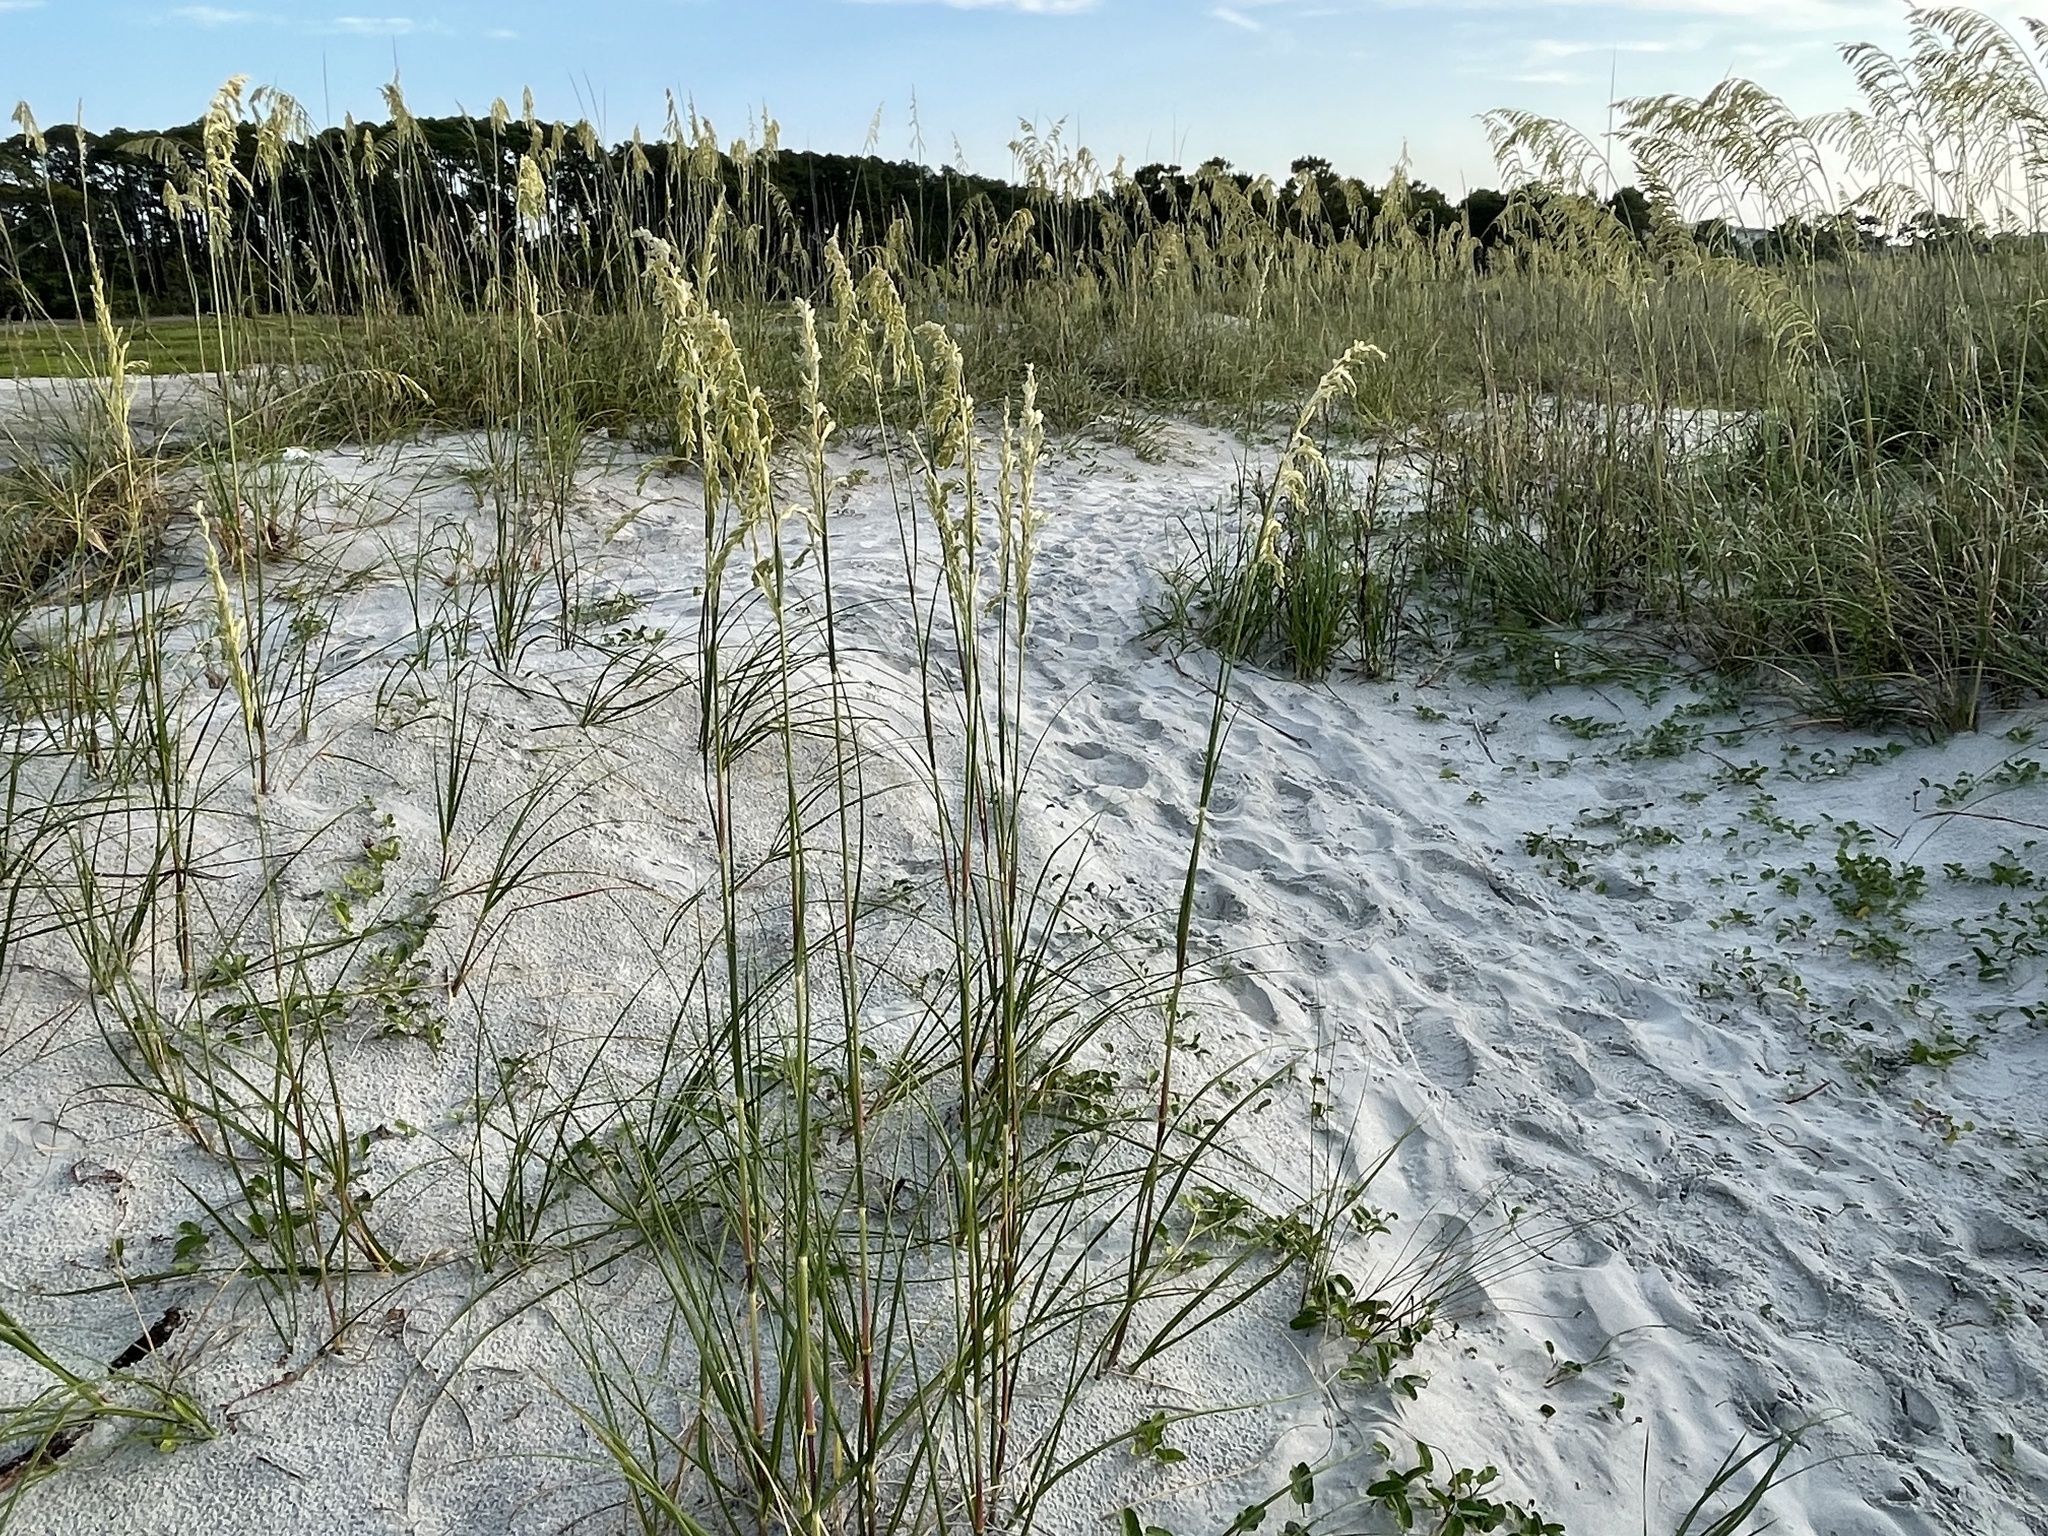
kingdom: Plantae
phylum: Tracheophyta
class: Liliopsida
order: Poales
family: Poaceae
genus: Uniola
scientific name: Uniola paniculata
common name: Seaside-oats
